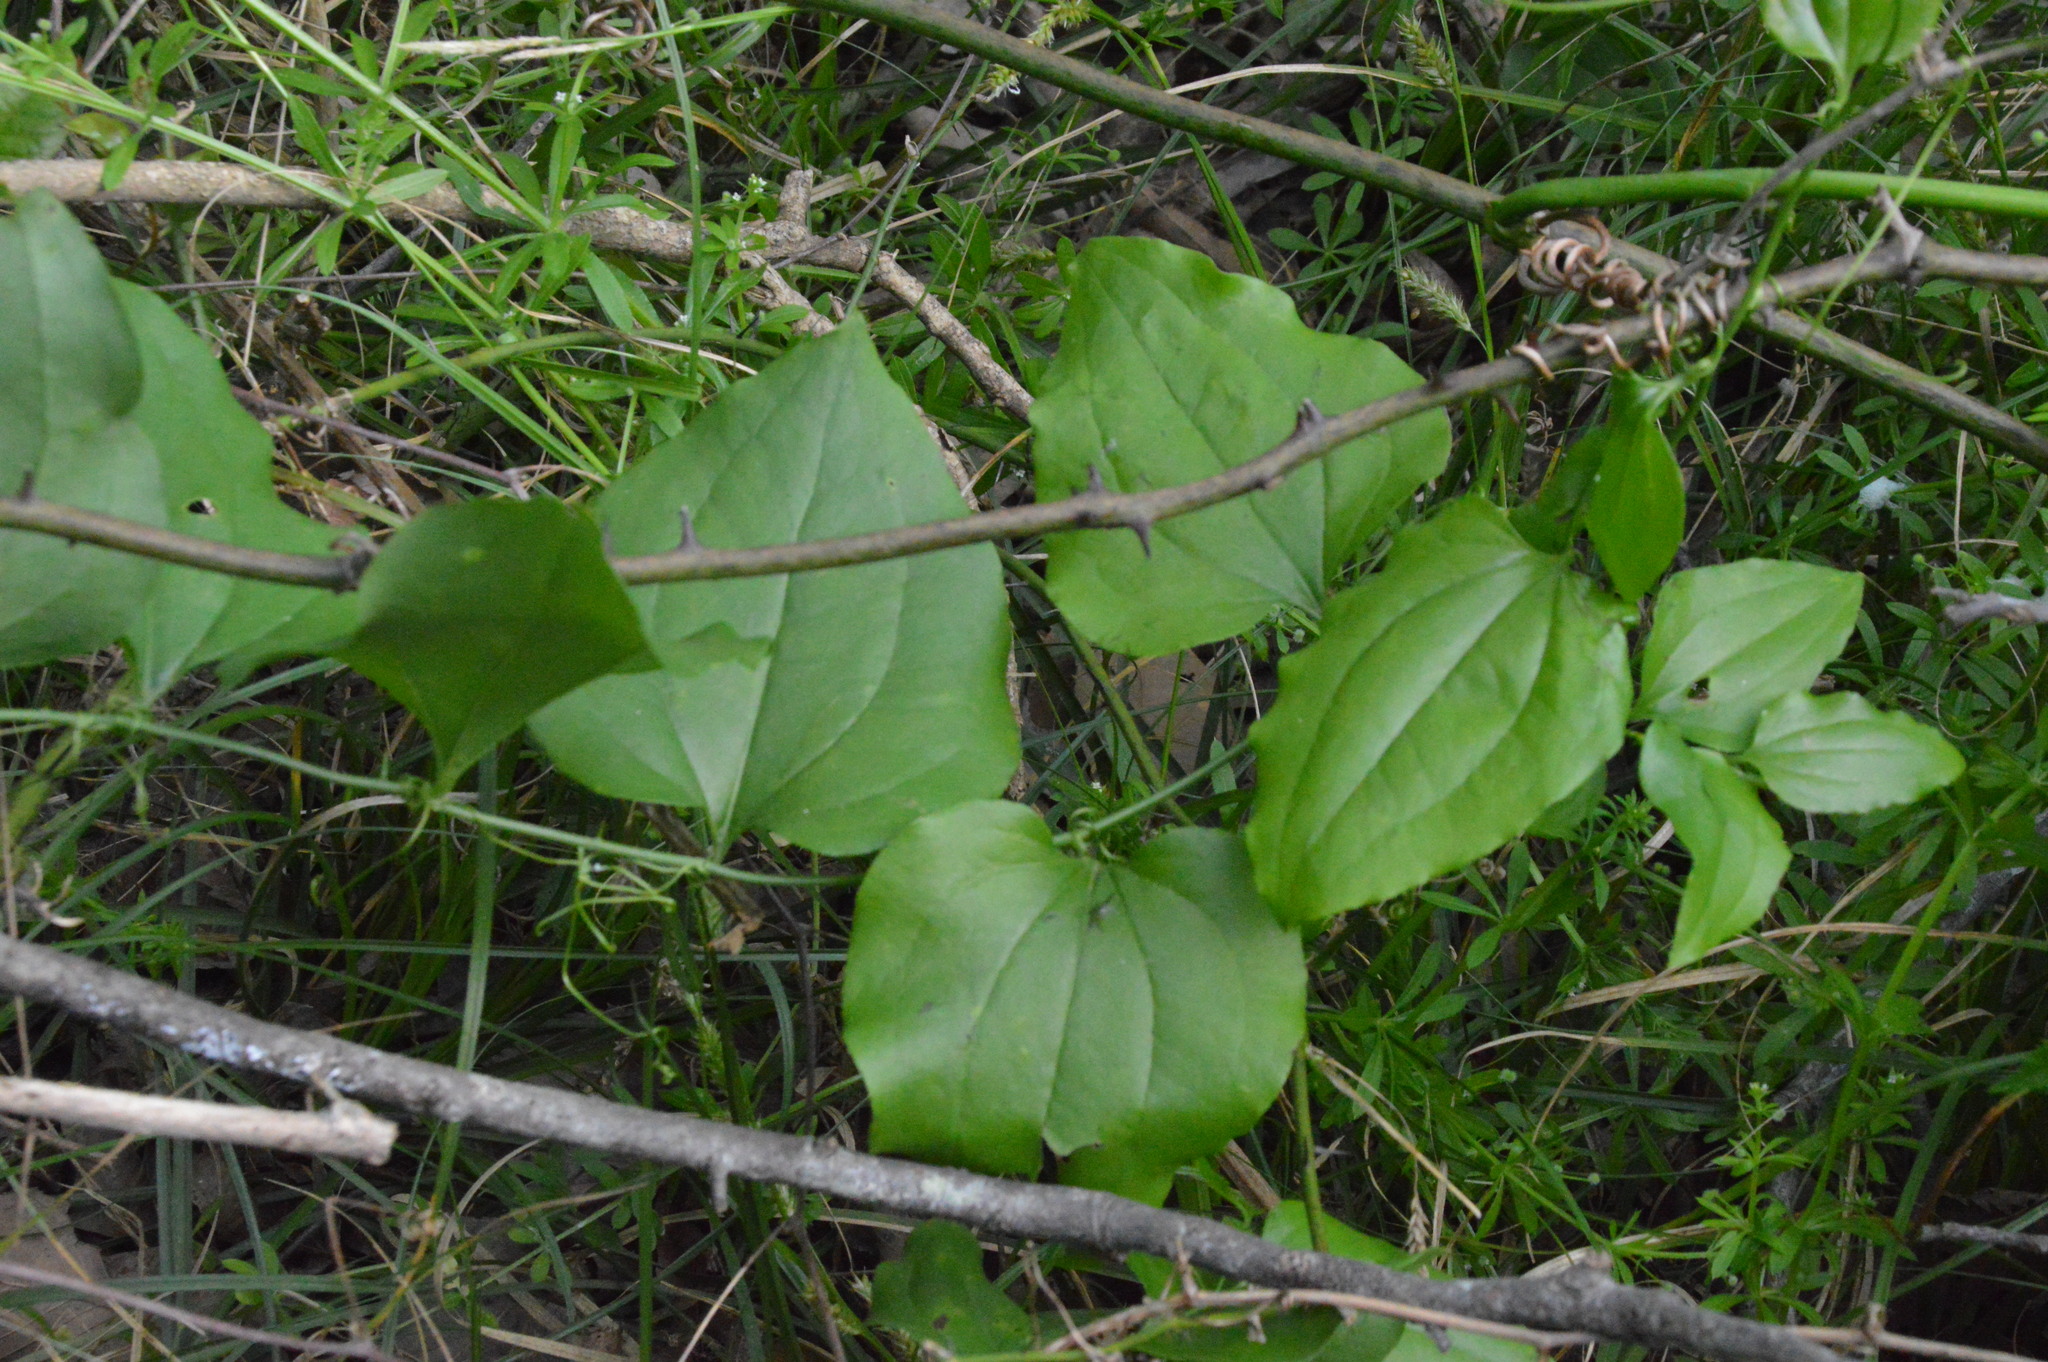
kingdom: Plantae
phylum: Tracheophyta
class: Liliopsida
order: Liliales
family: Smilacaceae
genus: Smilax
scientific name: Smilax tamnoides
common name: Hellfetter
